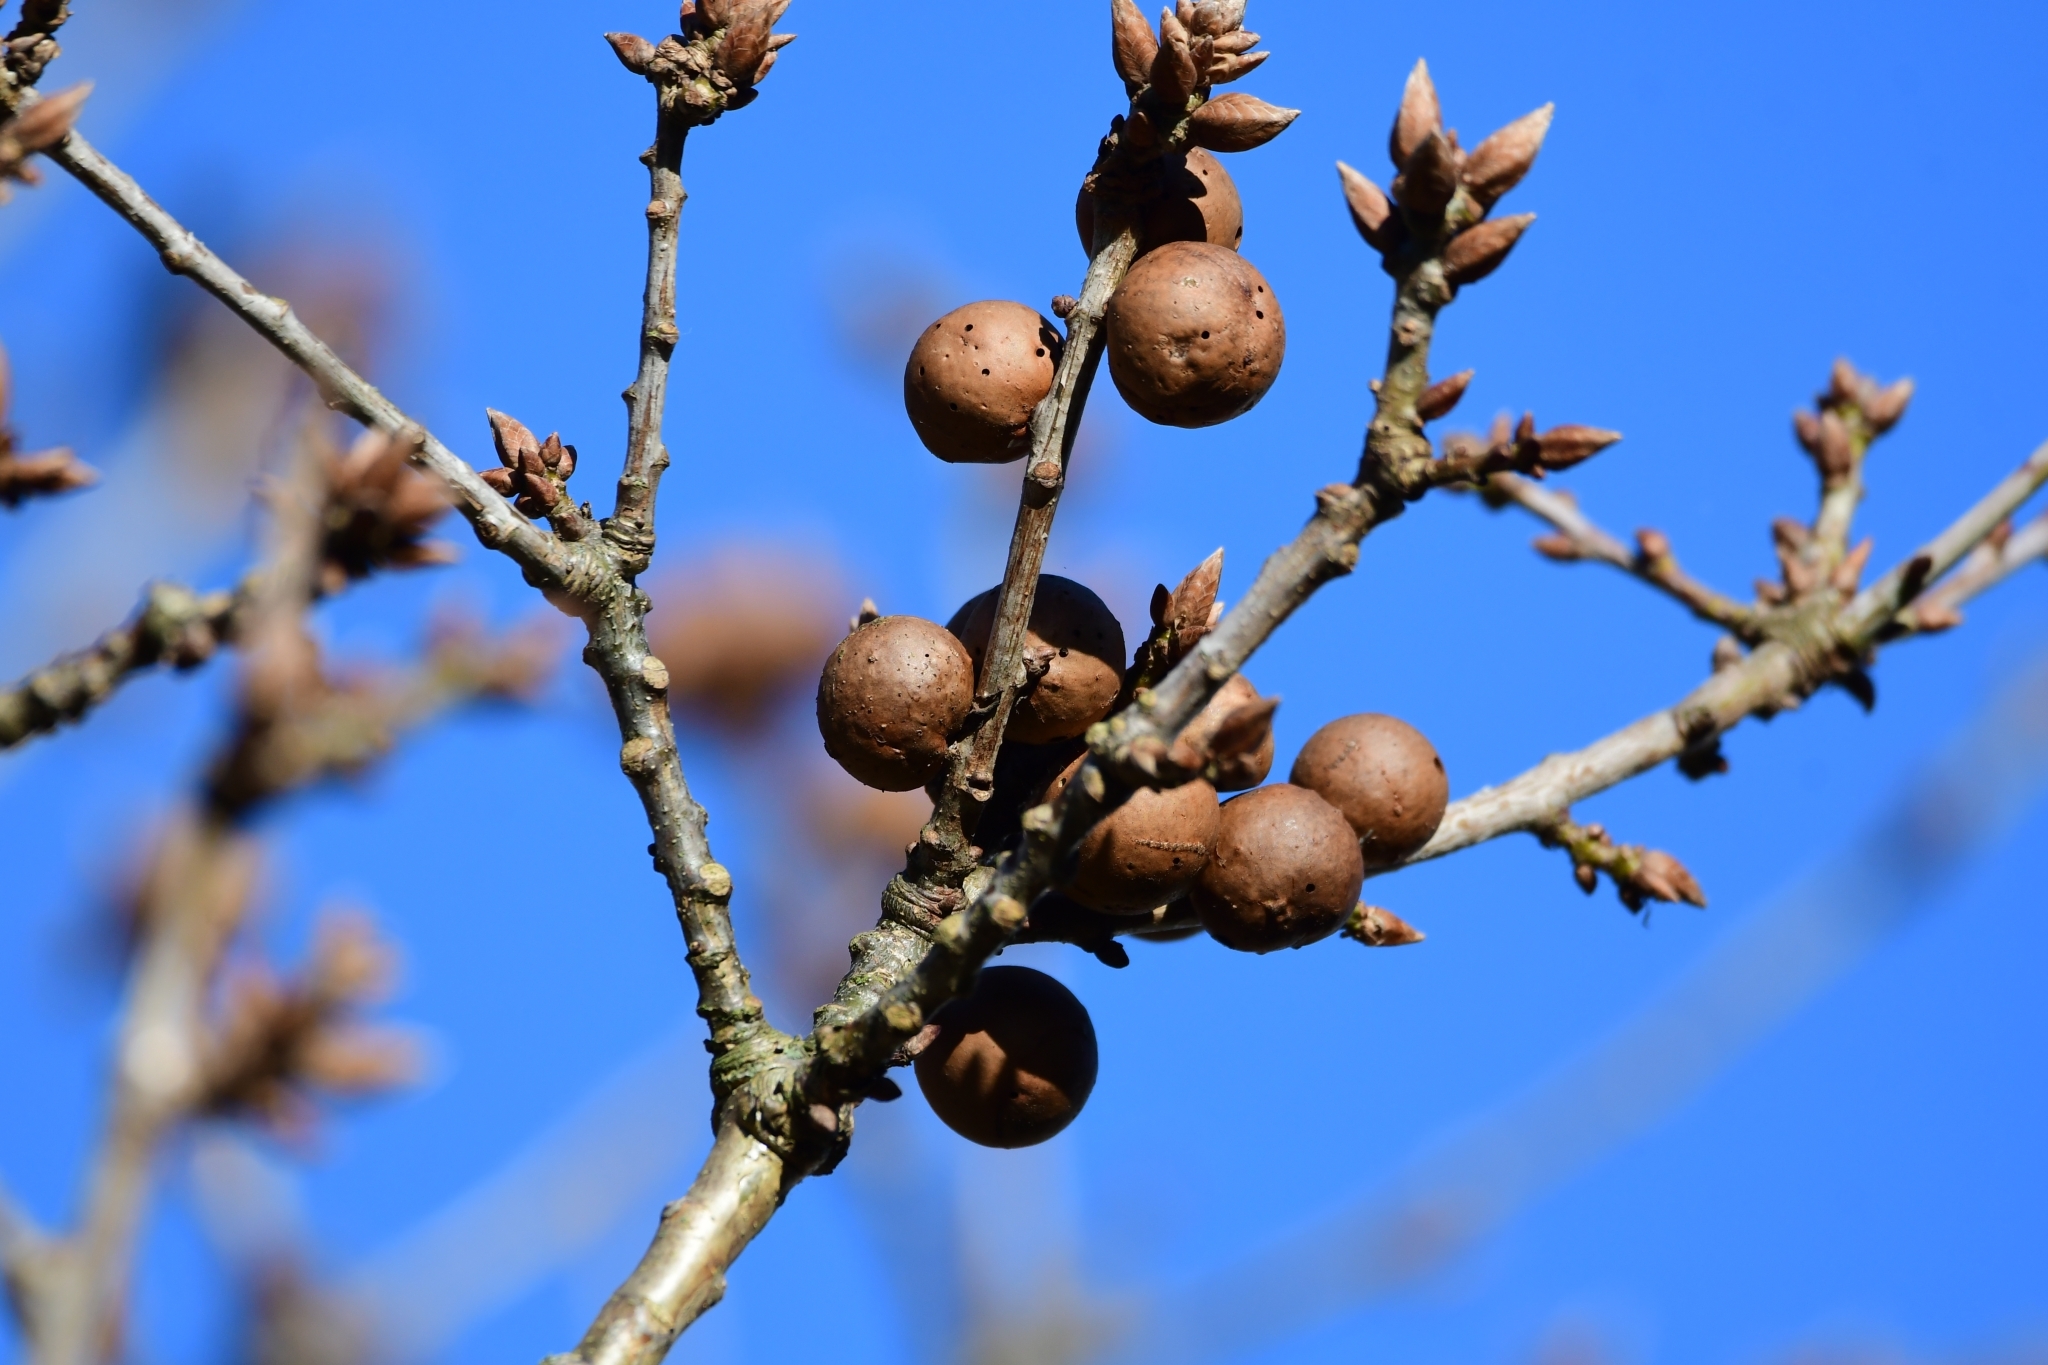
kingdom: Animalia
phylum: Arthropoda
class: Insecta
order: Hymenoptera
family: Cynipidae
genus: Andricus
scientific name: Andricus kollari
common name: Marble gall
